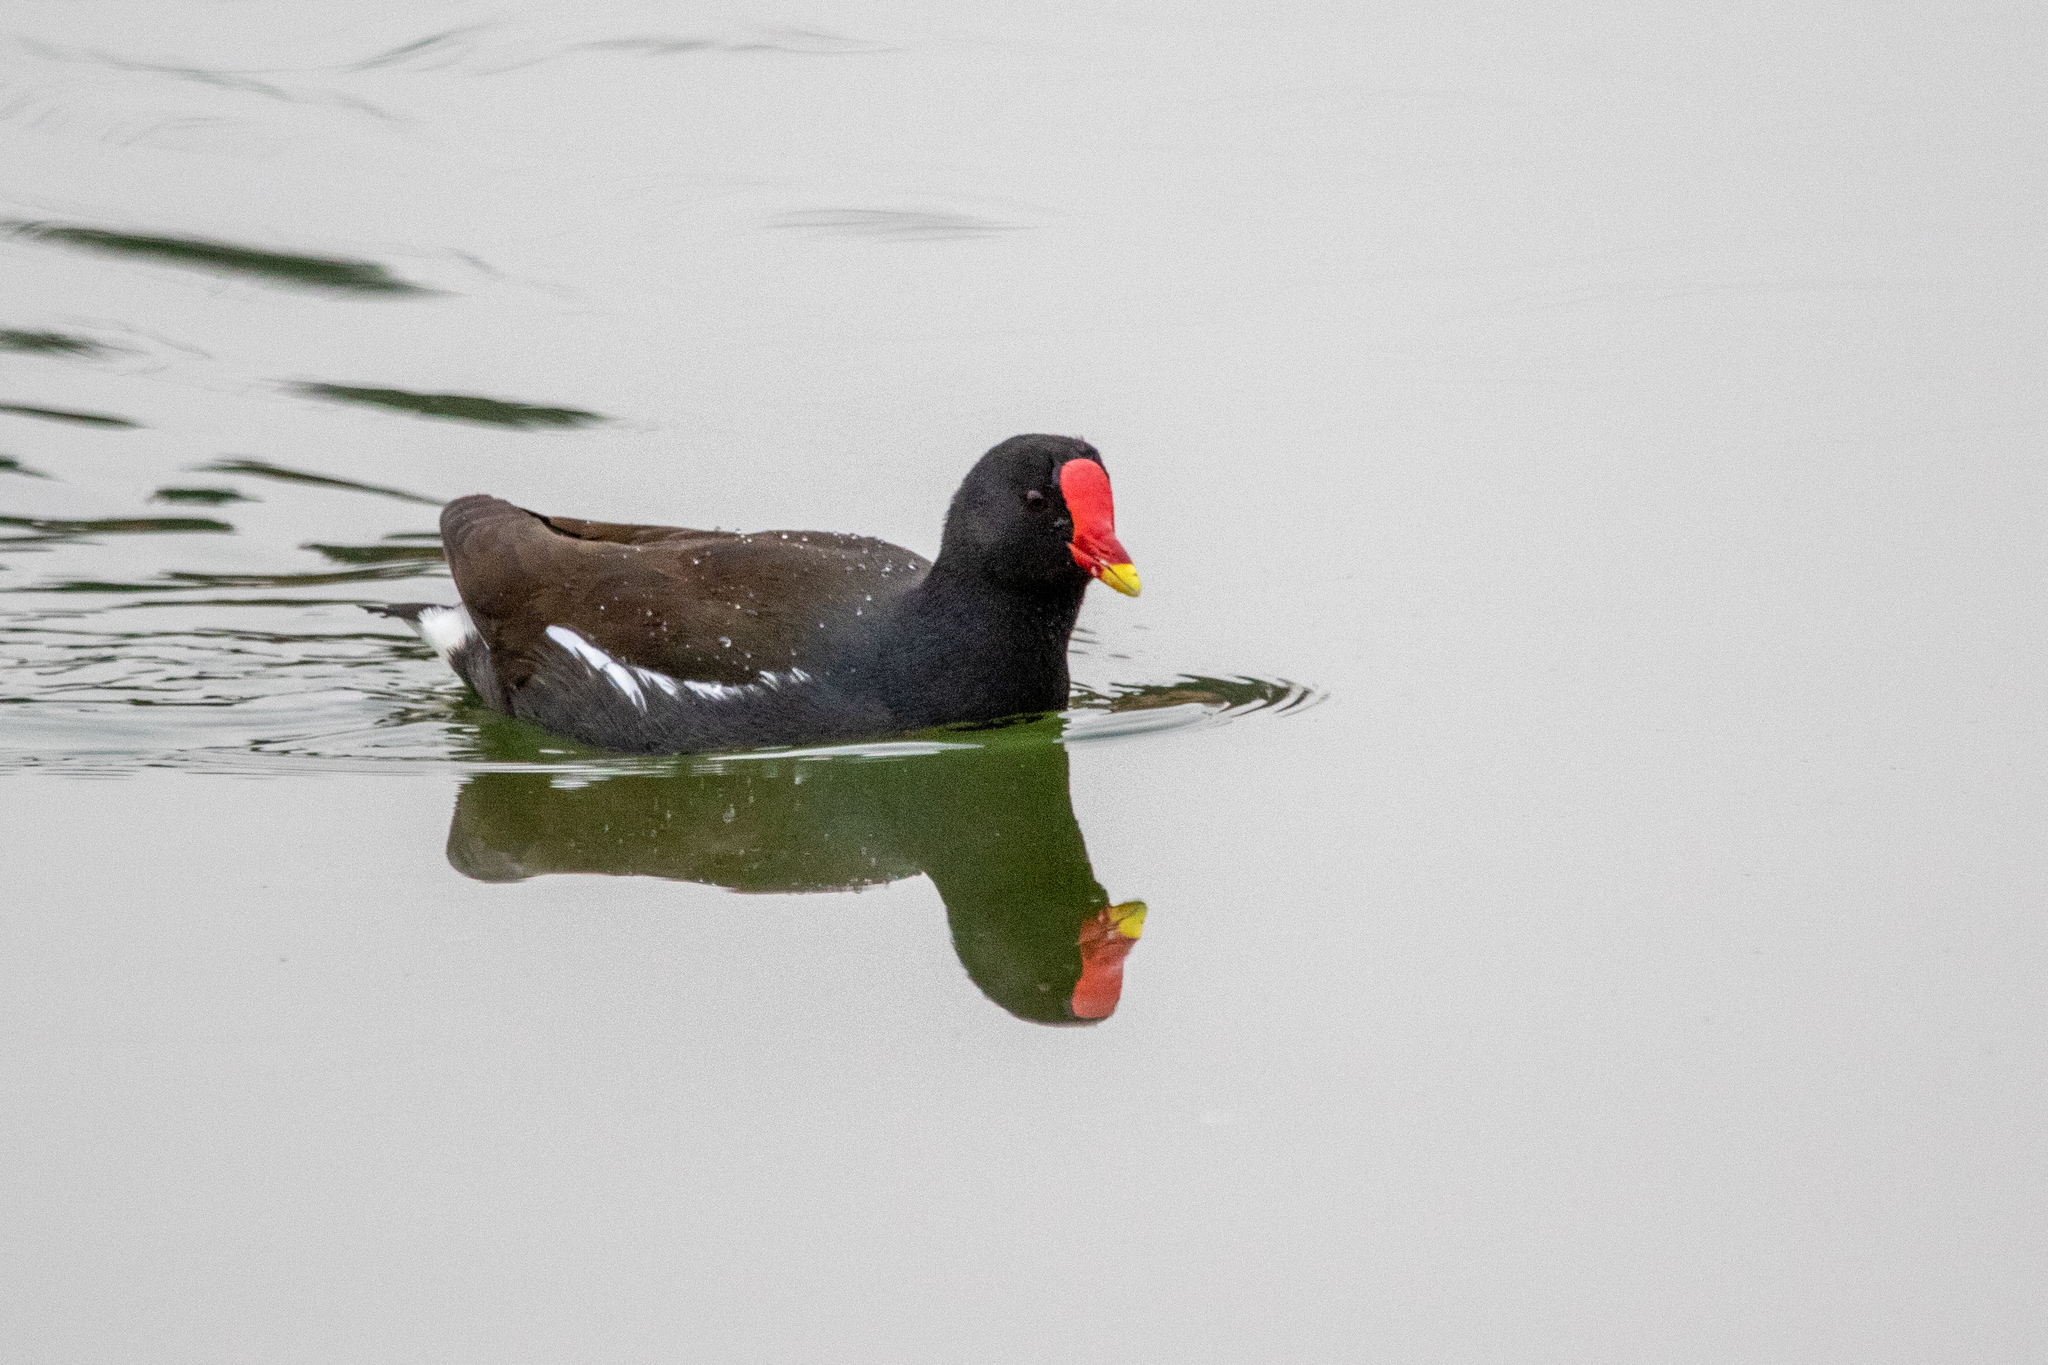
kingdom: Animalia
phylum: Chordata
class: Aves
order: Gruiformes
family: Rallidae
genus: Gallinula
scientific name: Gallinula chloropus
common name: Common moorhen
